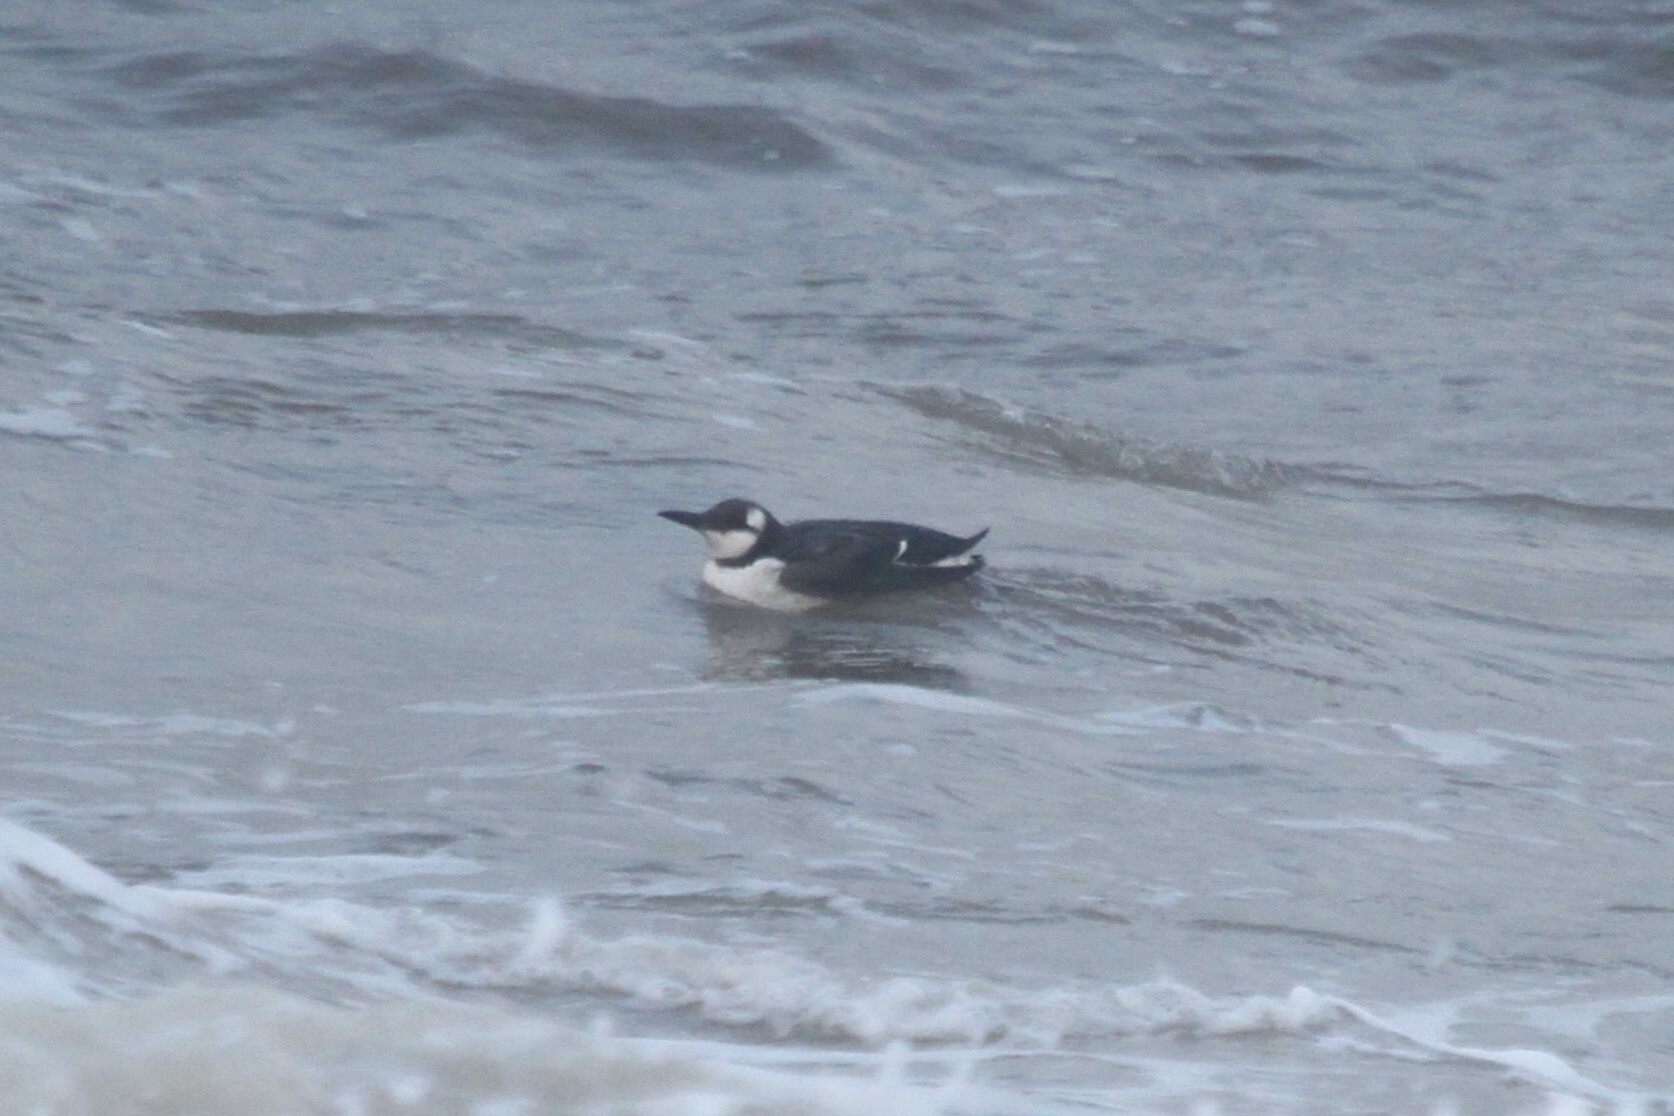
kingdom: Animalia
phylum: Chordata
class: Aves
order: Charadriiformes
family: Alcidae
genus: Uria
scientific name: Uria aalge
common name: Common murre
